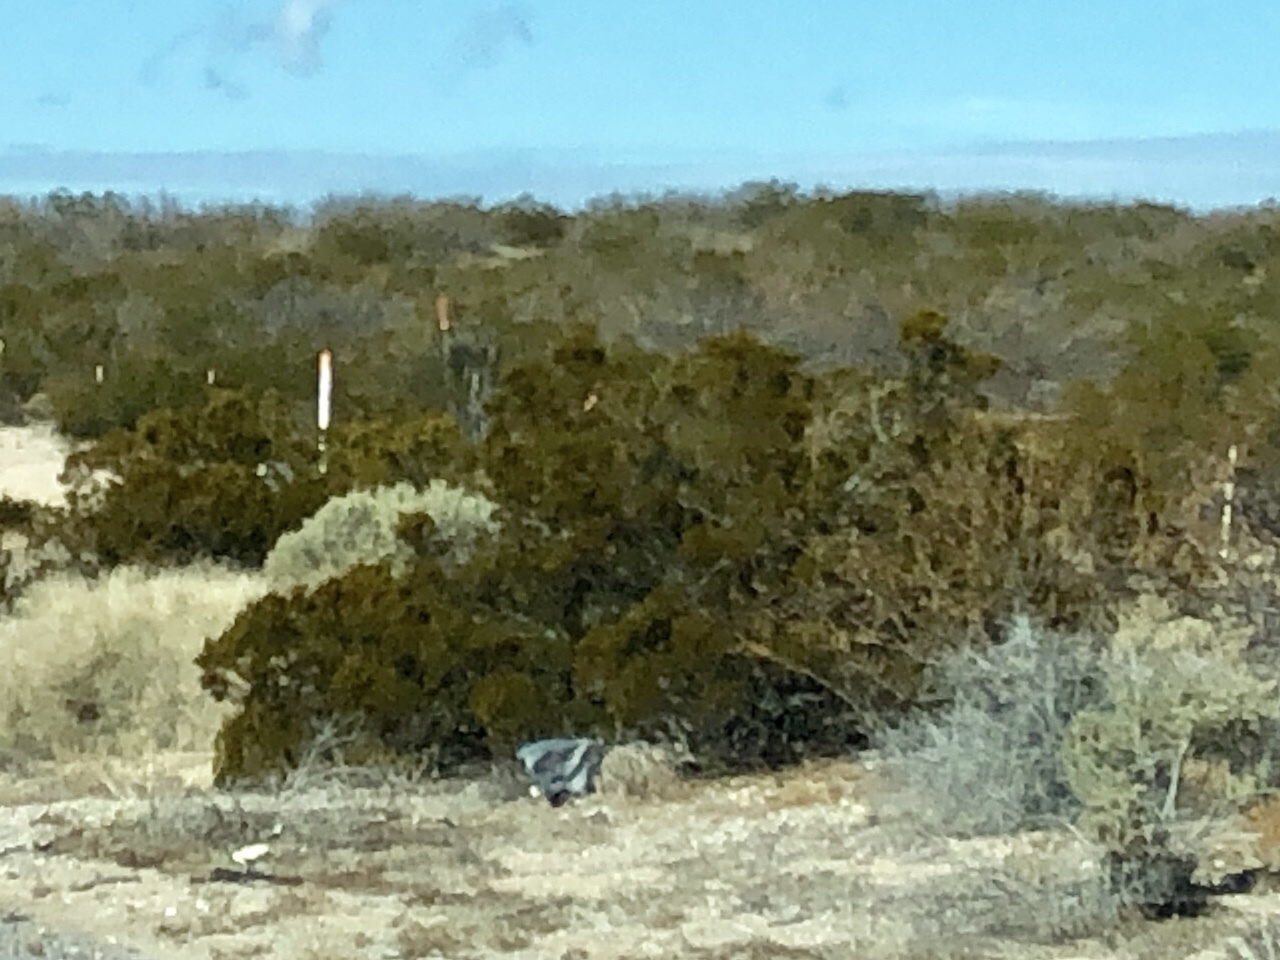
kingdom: Plantae
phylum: Tracheophyta
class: Magnoliopsida
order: Zygophyllales
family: Zygophyllaceae
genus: Larrea
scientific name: Larrea tridentata
